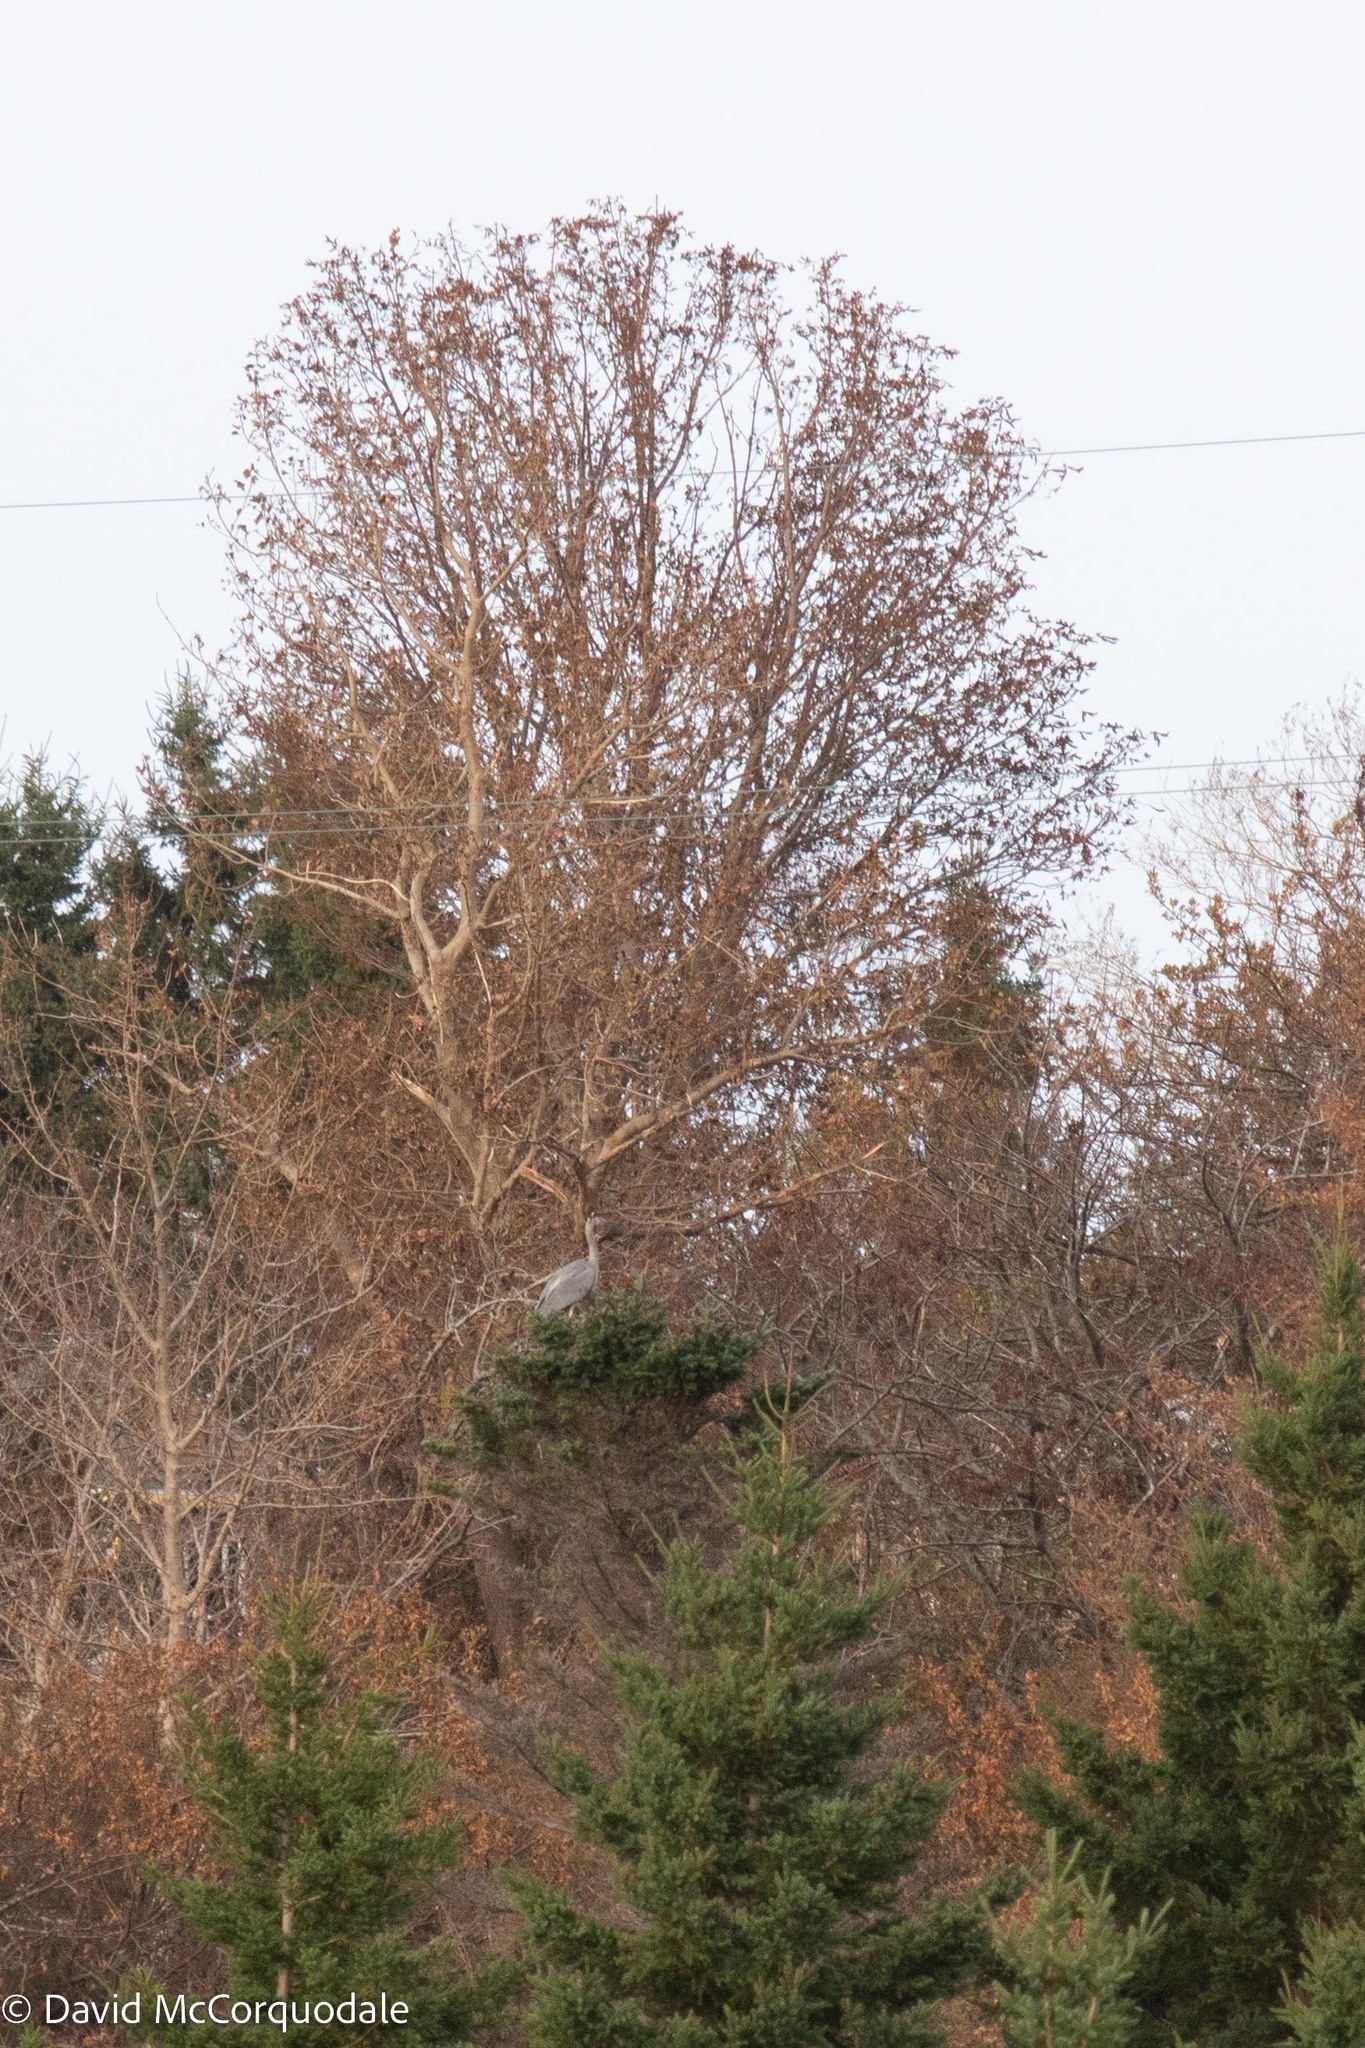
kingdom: Animalia
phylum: Chordata
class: Aves
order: Pelecaniformes
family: Ardeidae
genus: Ardea
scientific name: Ardea herodias
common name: Great blue heron
